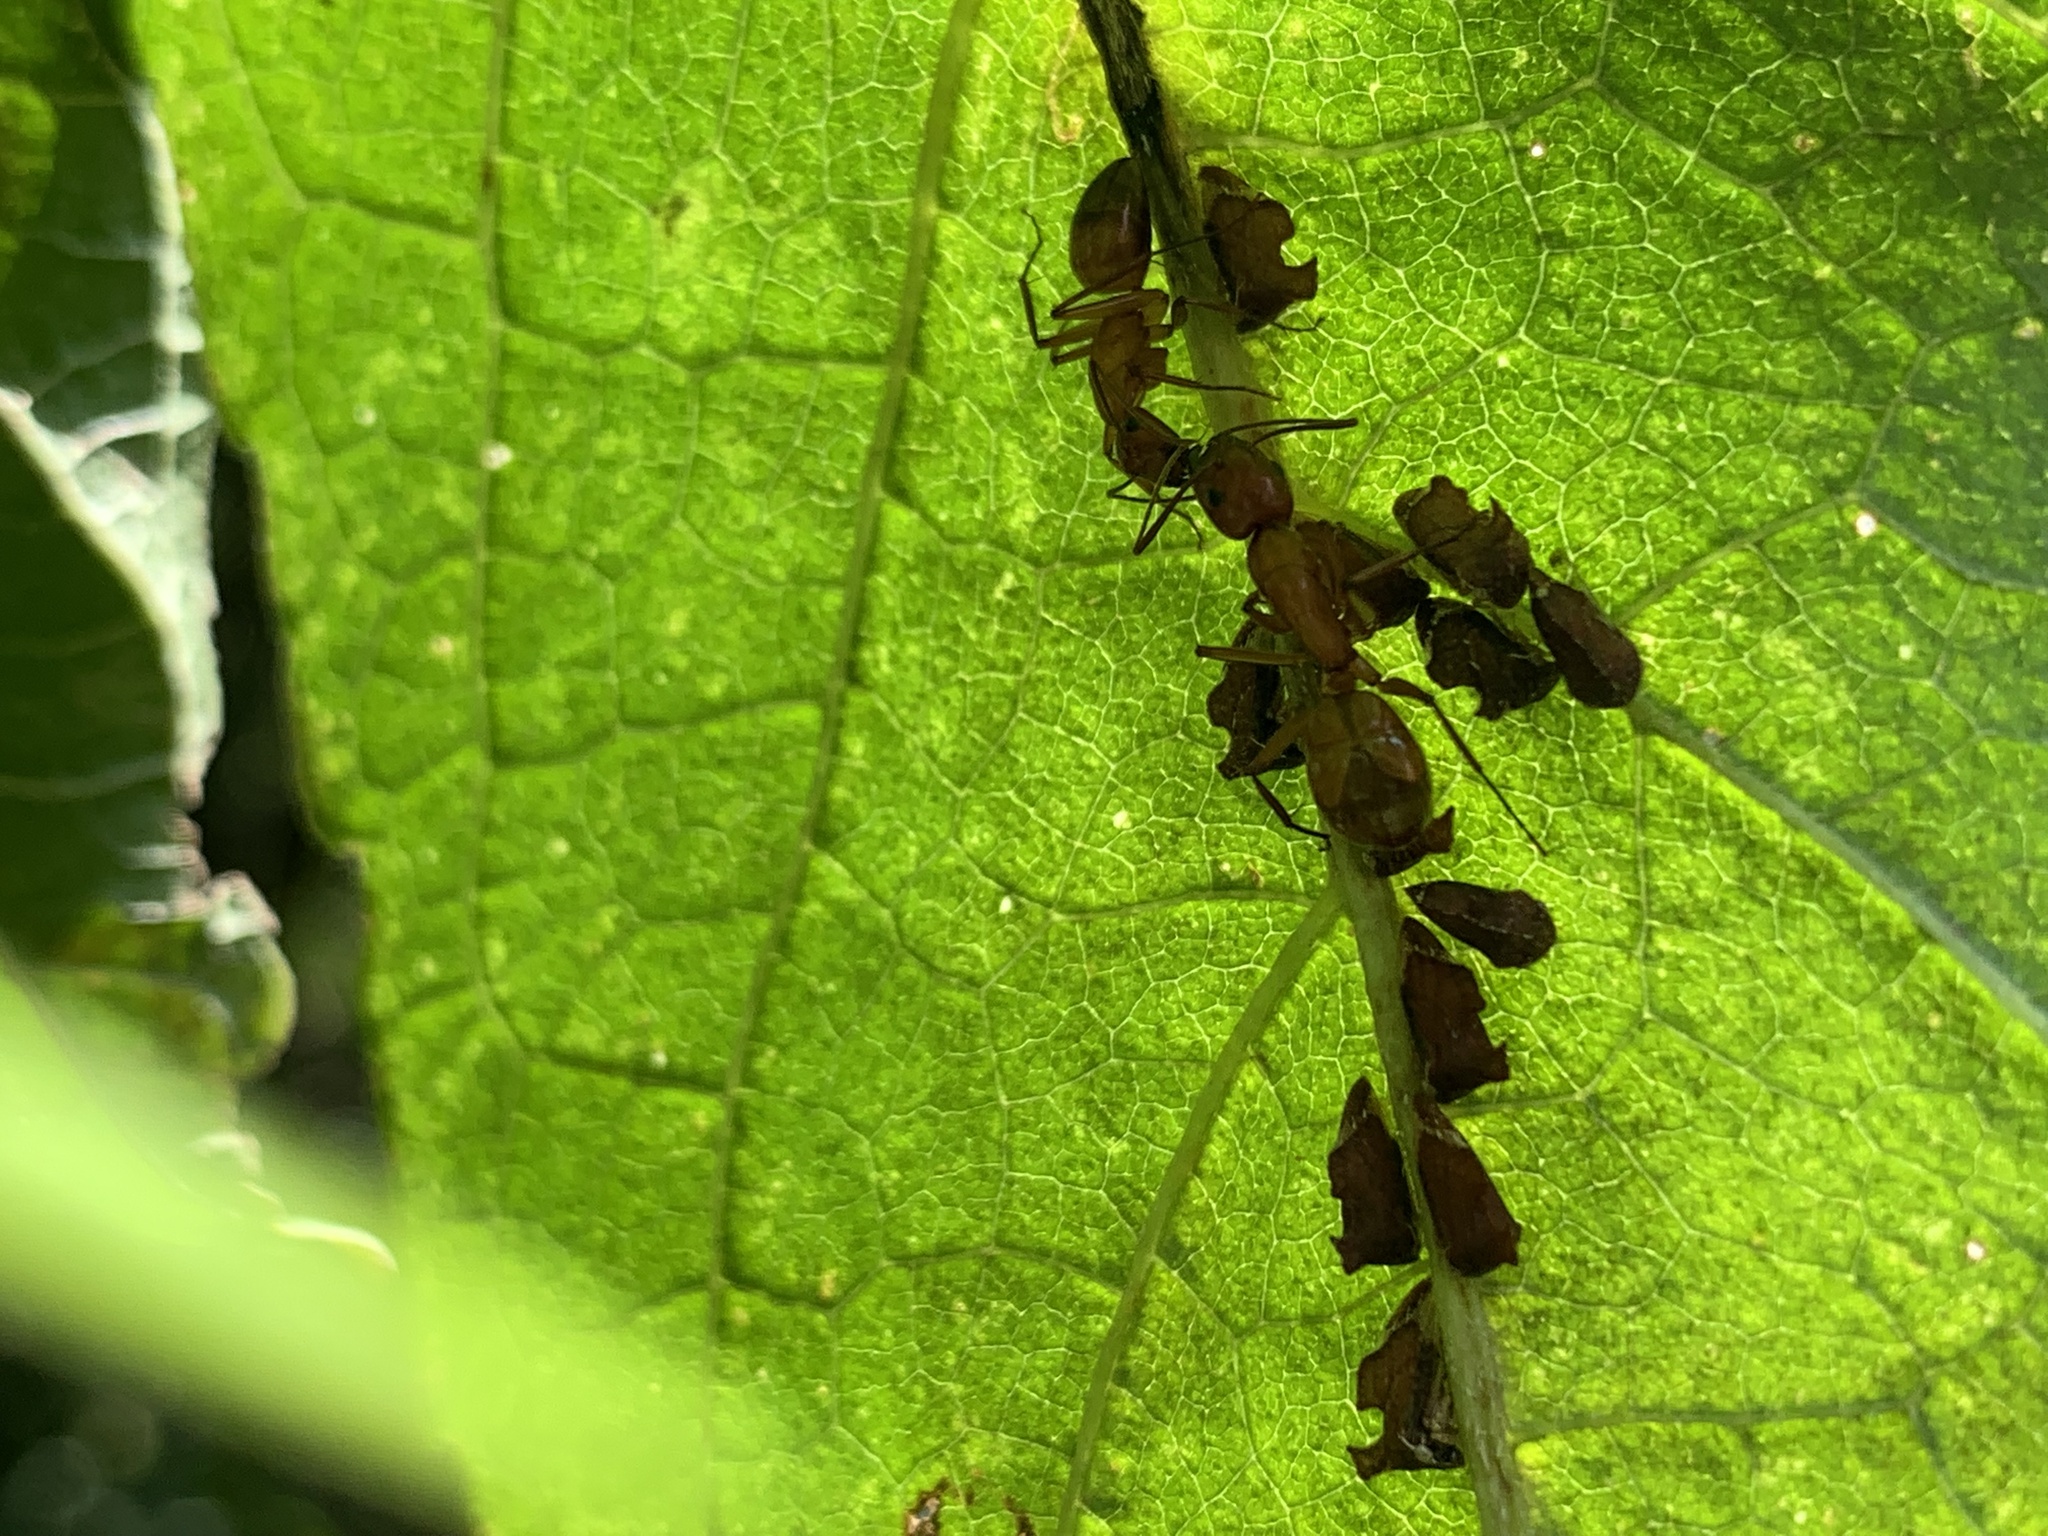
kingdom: Animalia
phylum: Arthropoda
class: Insecta
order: Hemiptera
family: Membracidae
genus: Entylia
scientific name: Entylia carinata
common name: Keeled treehopper
